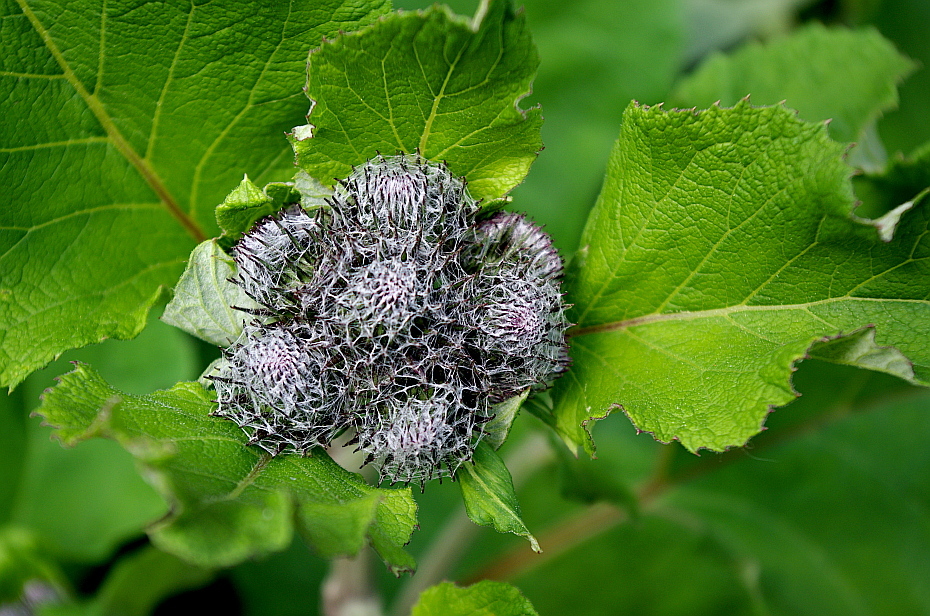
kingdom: Plantae
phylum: Tracheophyta
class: Magnoliopsida
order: Asterales
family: Asteraceae
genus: Arctium
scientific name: Arctium tomentosum
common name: Woolly burdock
